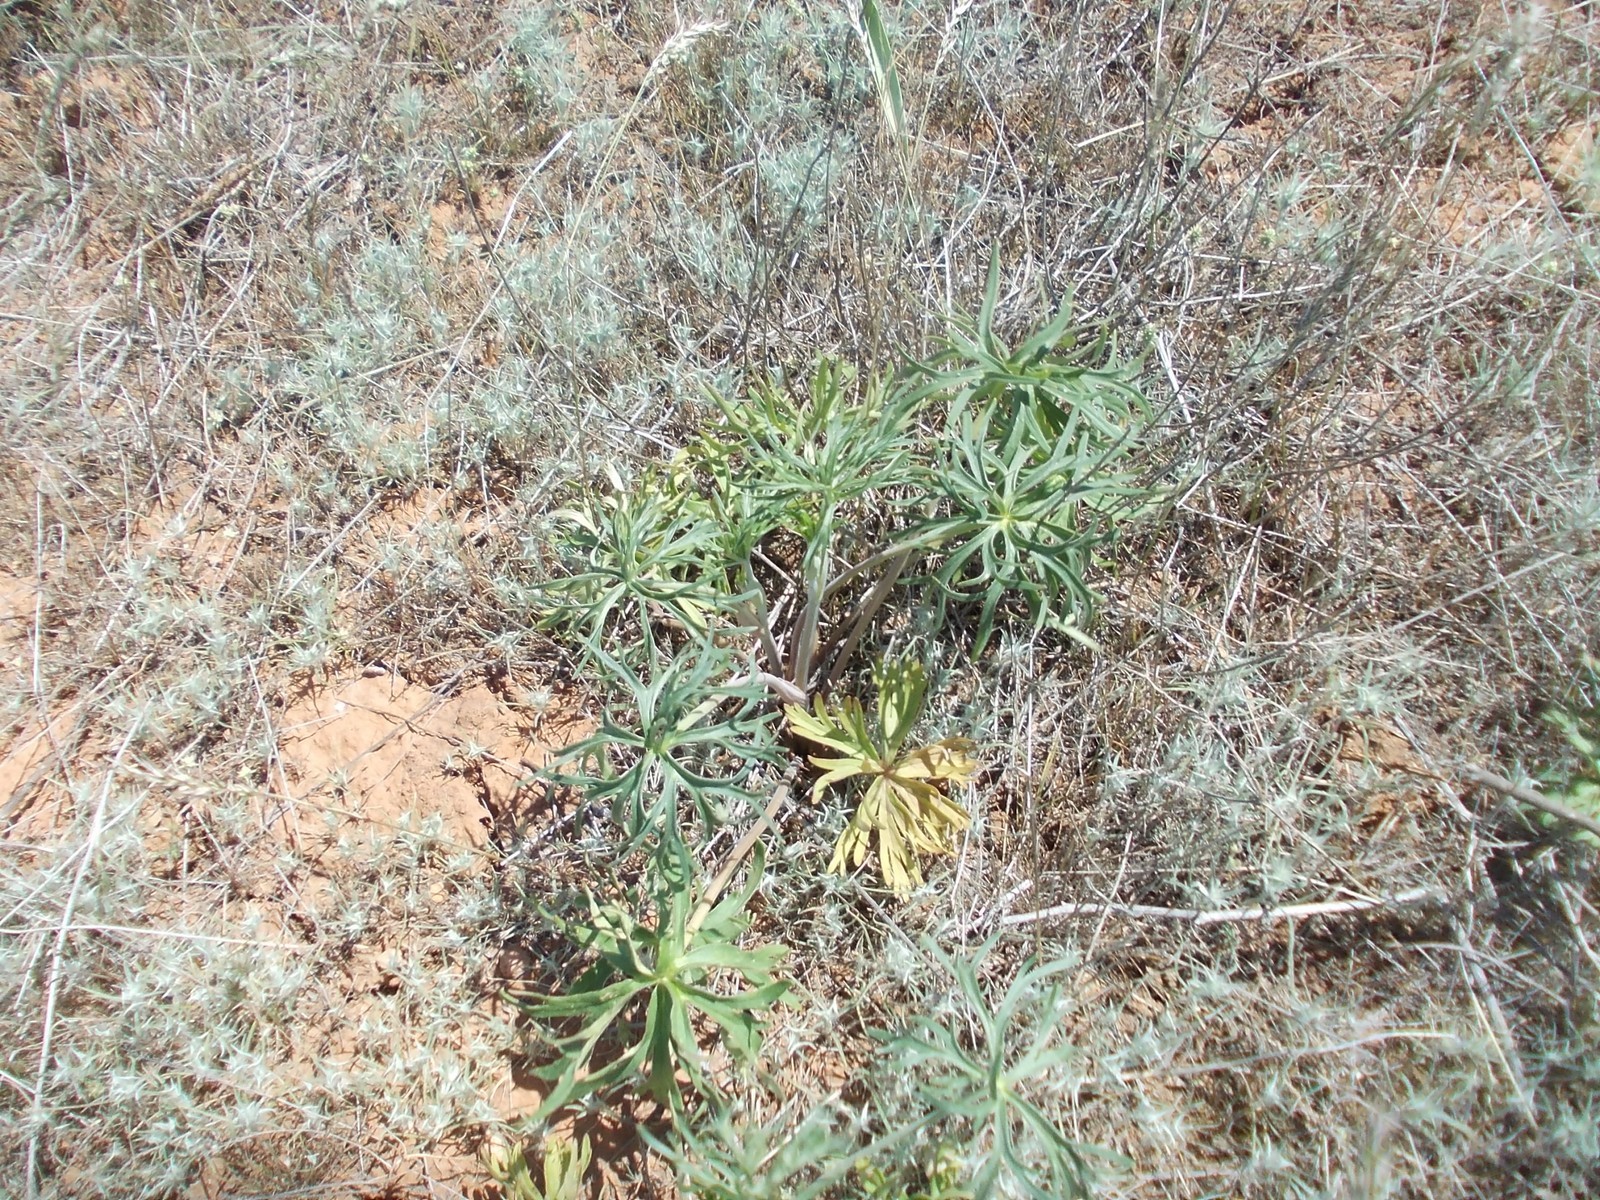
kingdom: Plantae
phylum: Tracheophyta
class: Magnoliopsida
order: Ranunculales
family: Ranunculaceae
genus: Delphinium
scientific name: Delphinium puniceum
